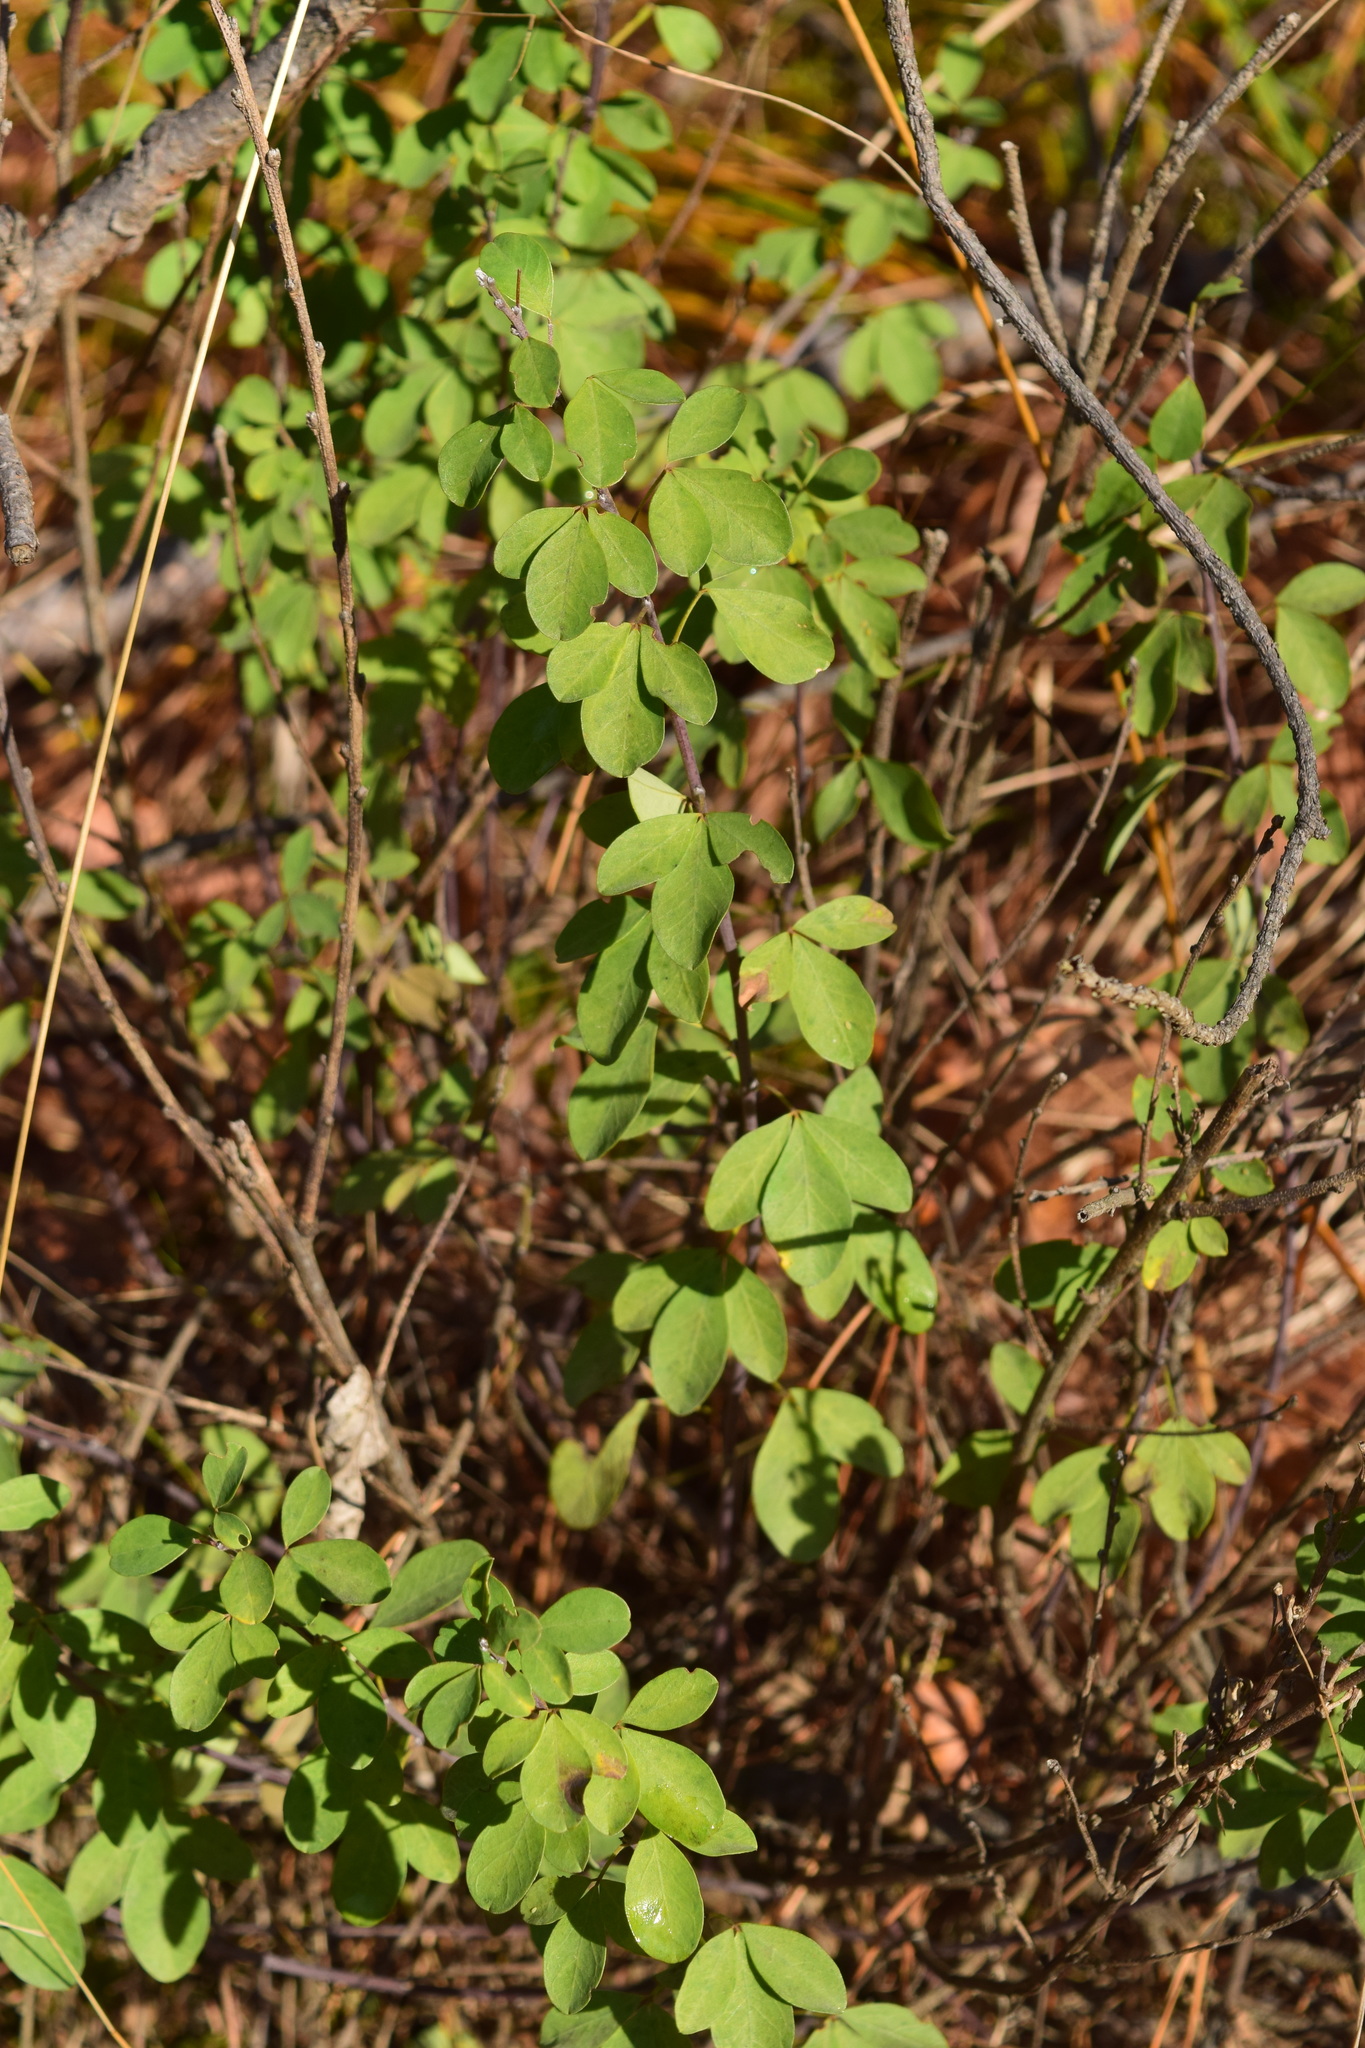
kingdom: Plantae
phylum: Tracheophyta
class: Magnoliopsida
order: Fabales
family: Fabaceae
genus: Chamaecytisus
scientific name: Chamaecytisus ruthenicus
